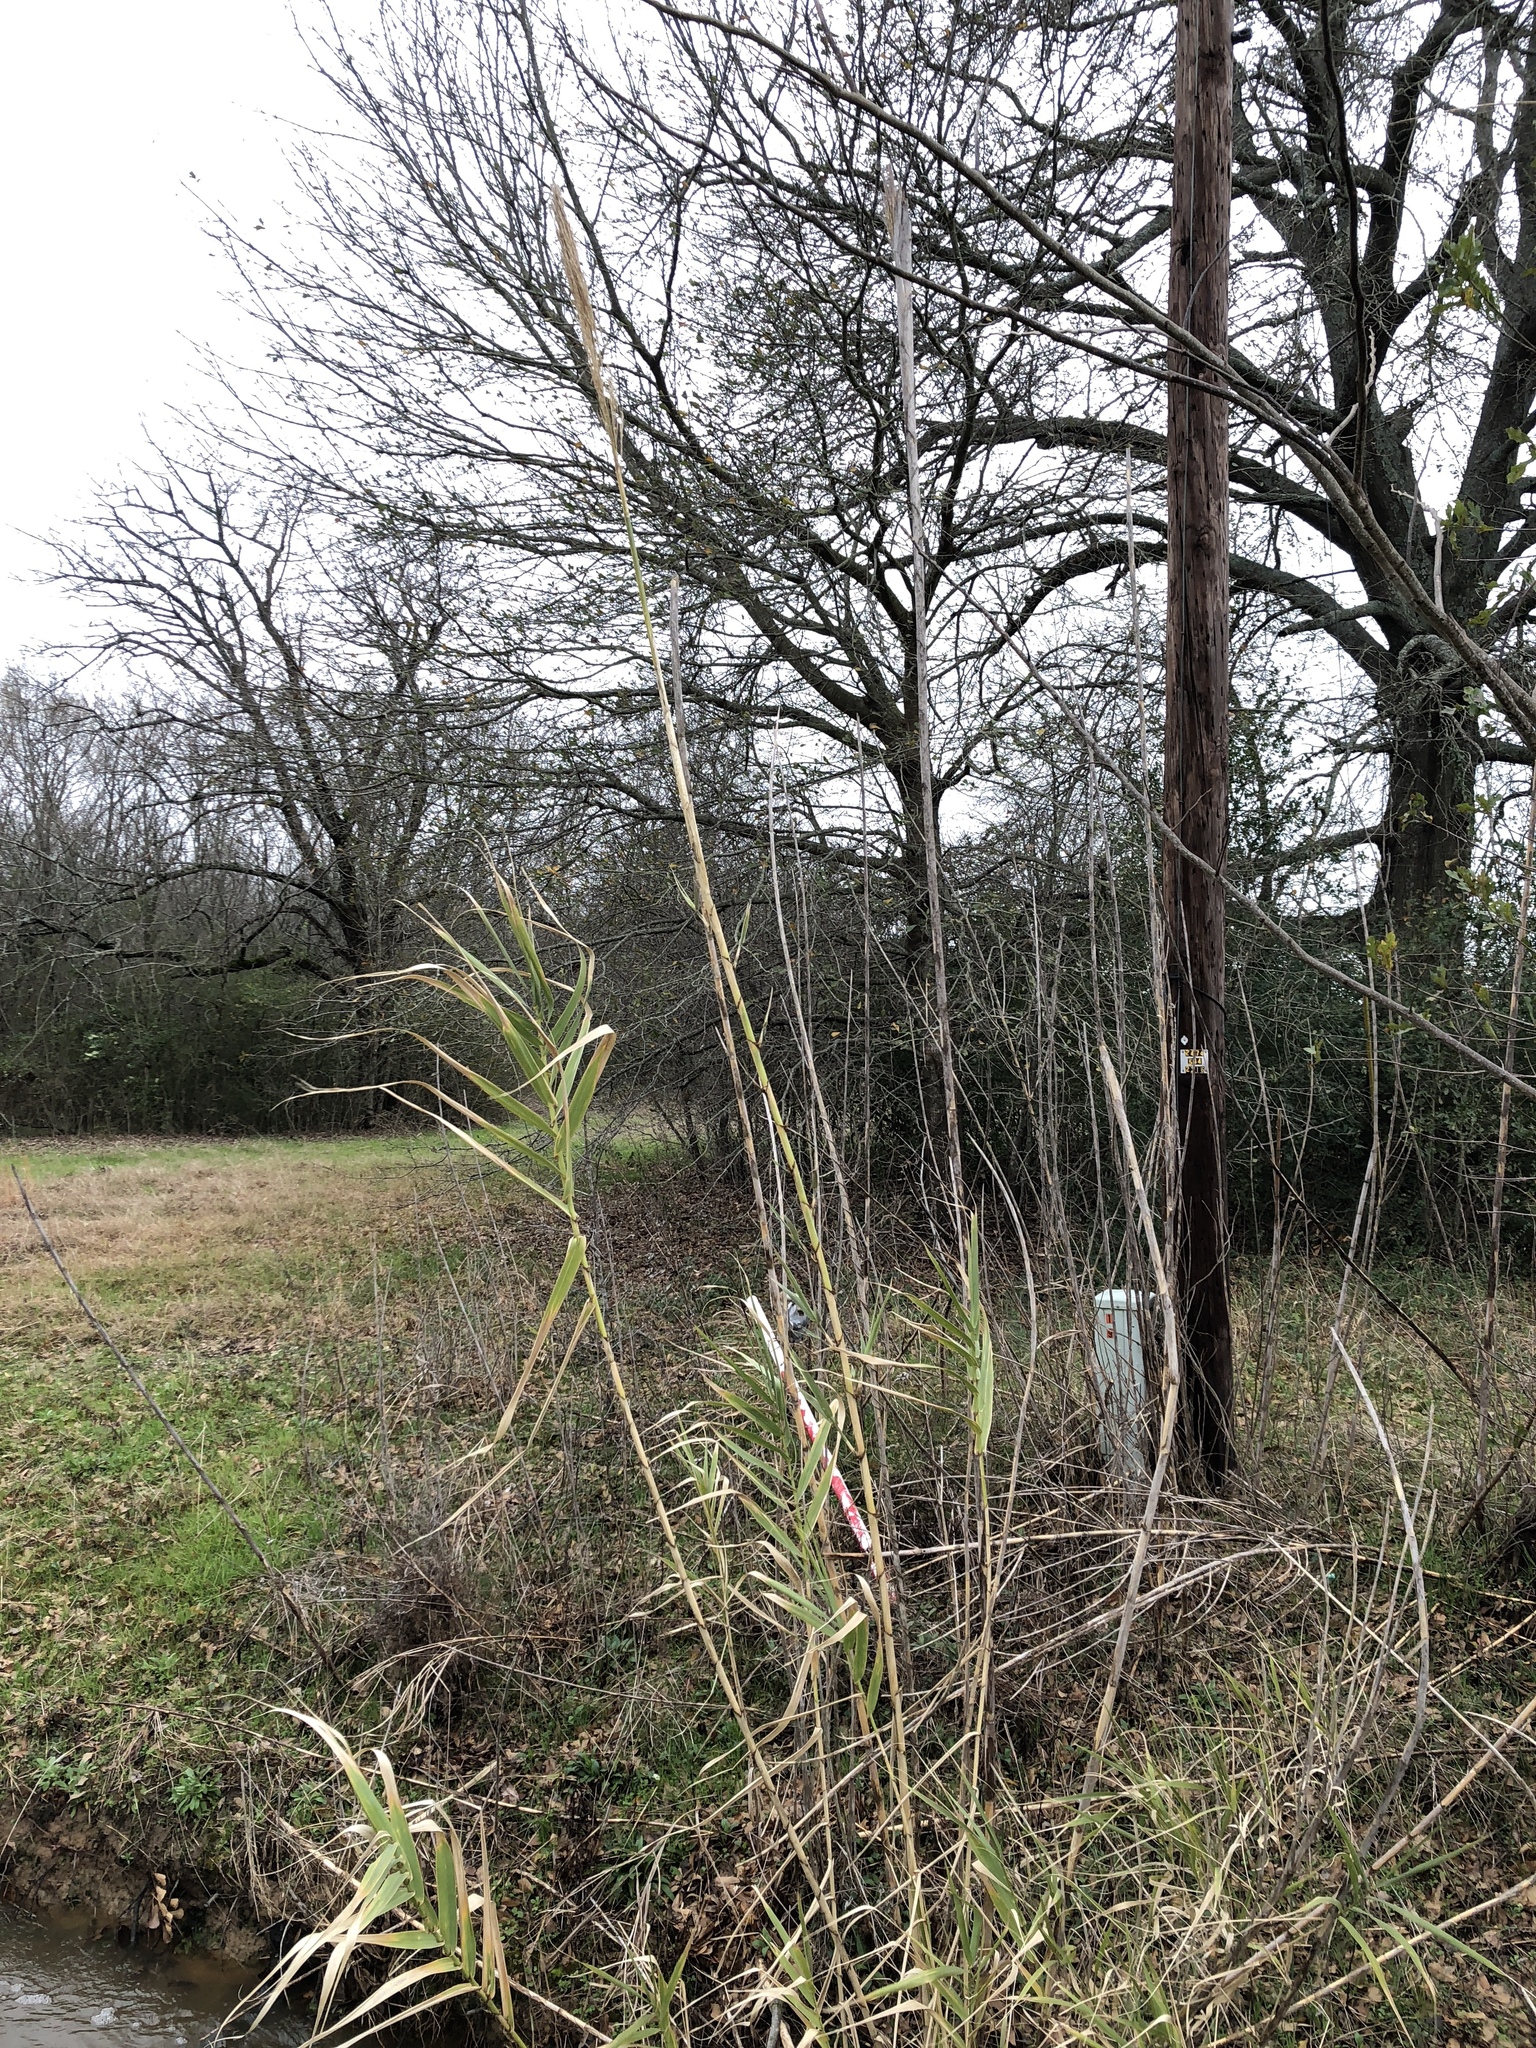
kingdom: Plantae
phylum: Tracheophyta
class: Liliopsida
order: Poales
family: Poaceae
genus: Arundo
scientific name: Arundo donax
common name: Giant reed
